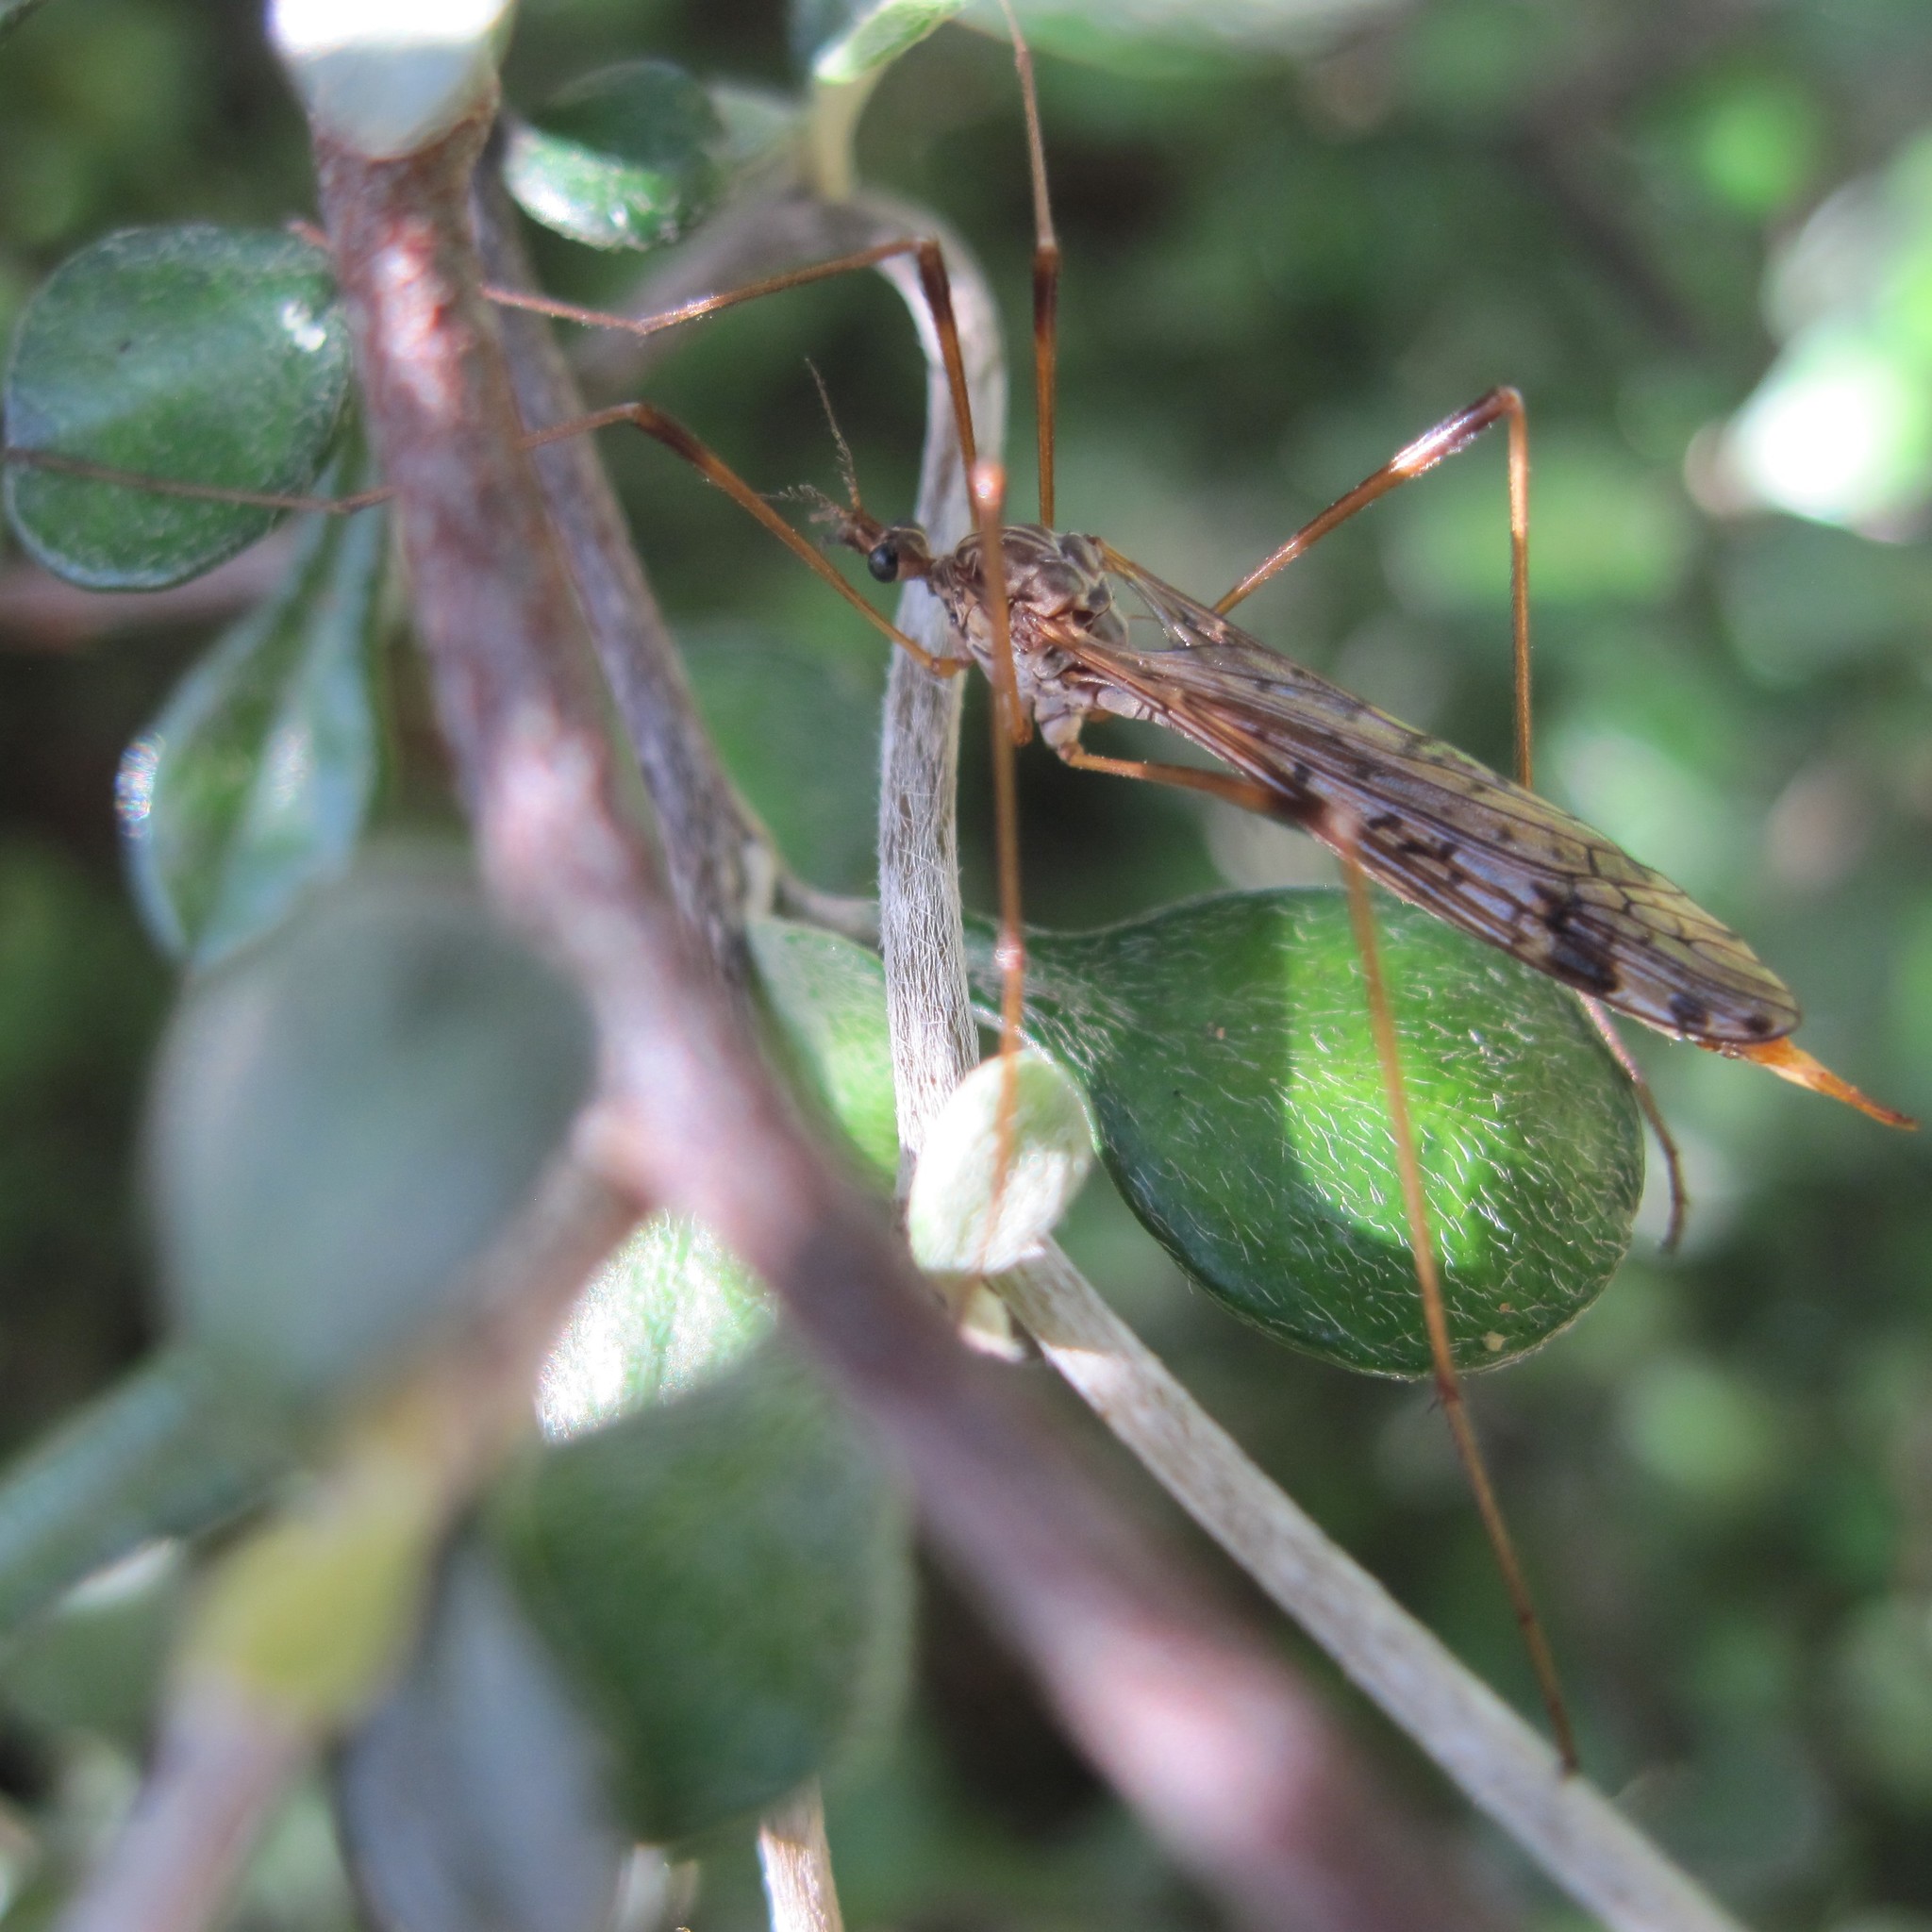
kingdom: Animalia
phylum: Arthropoda
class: Insecta
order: Diptera
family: Limoniidae
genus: Gynoplistia
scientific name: Gynoplistia magnifica
